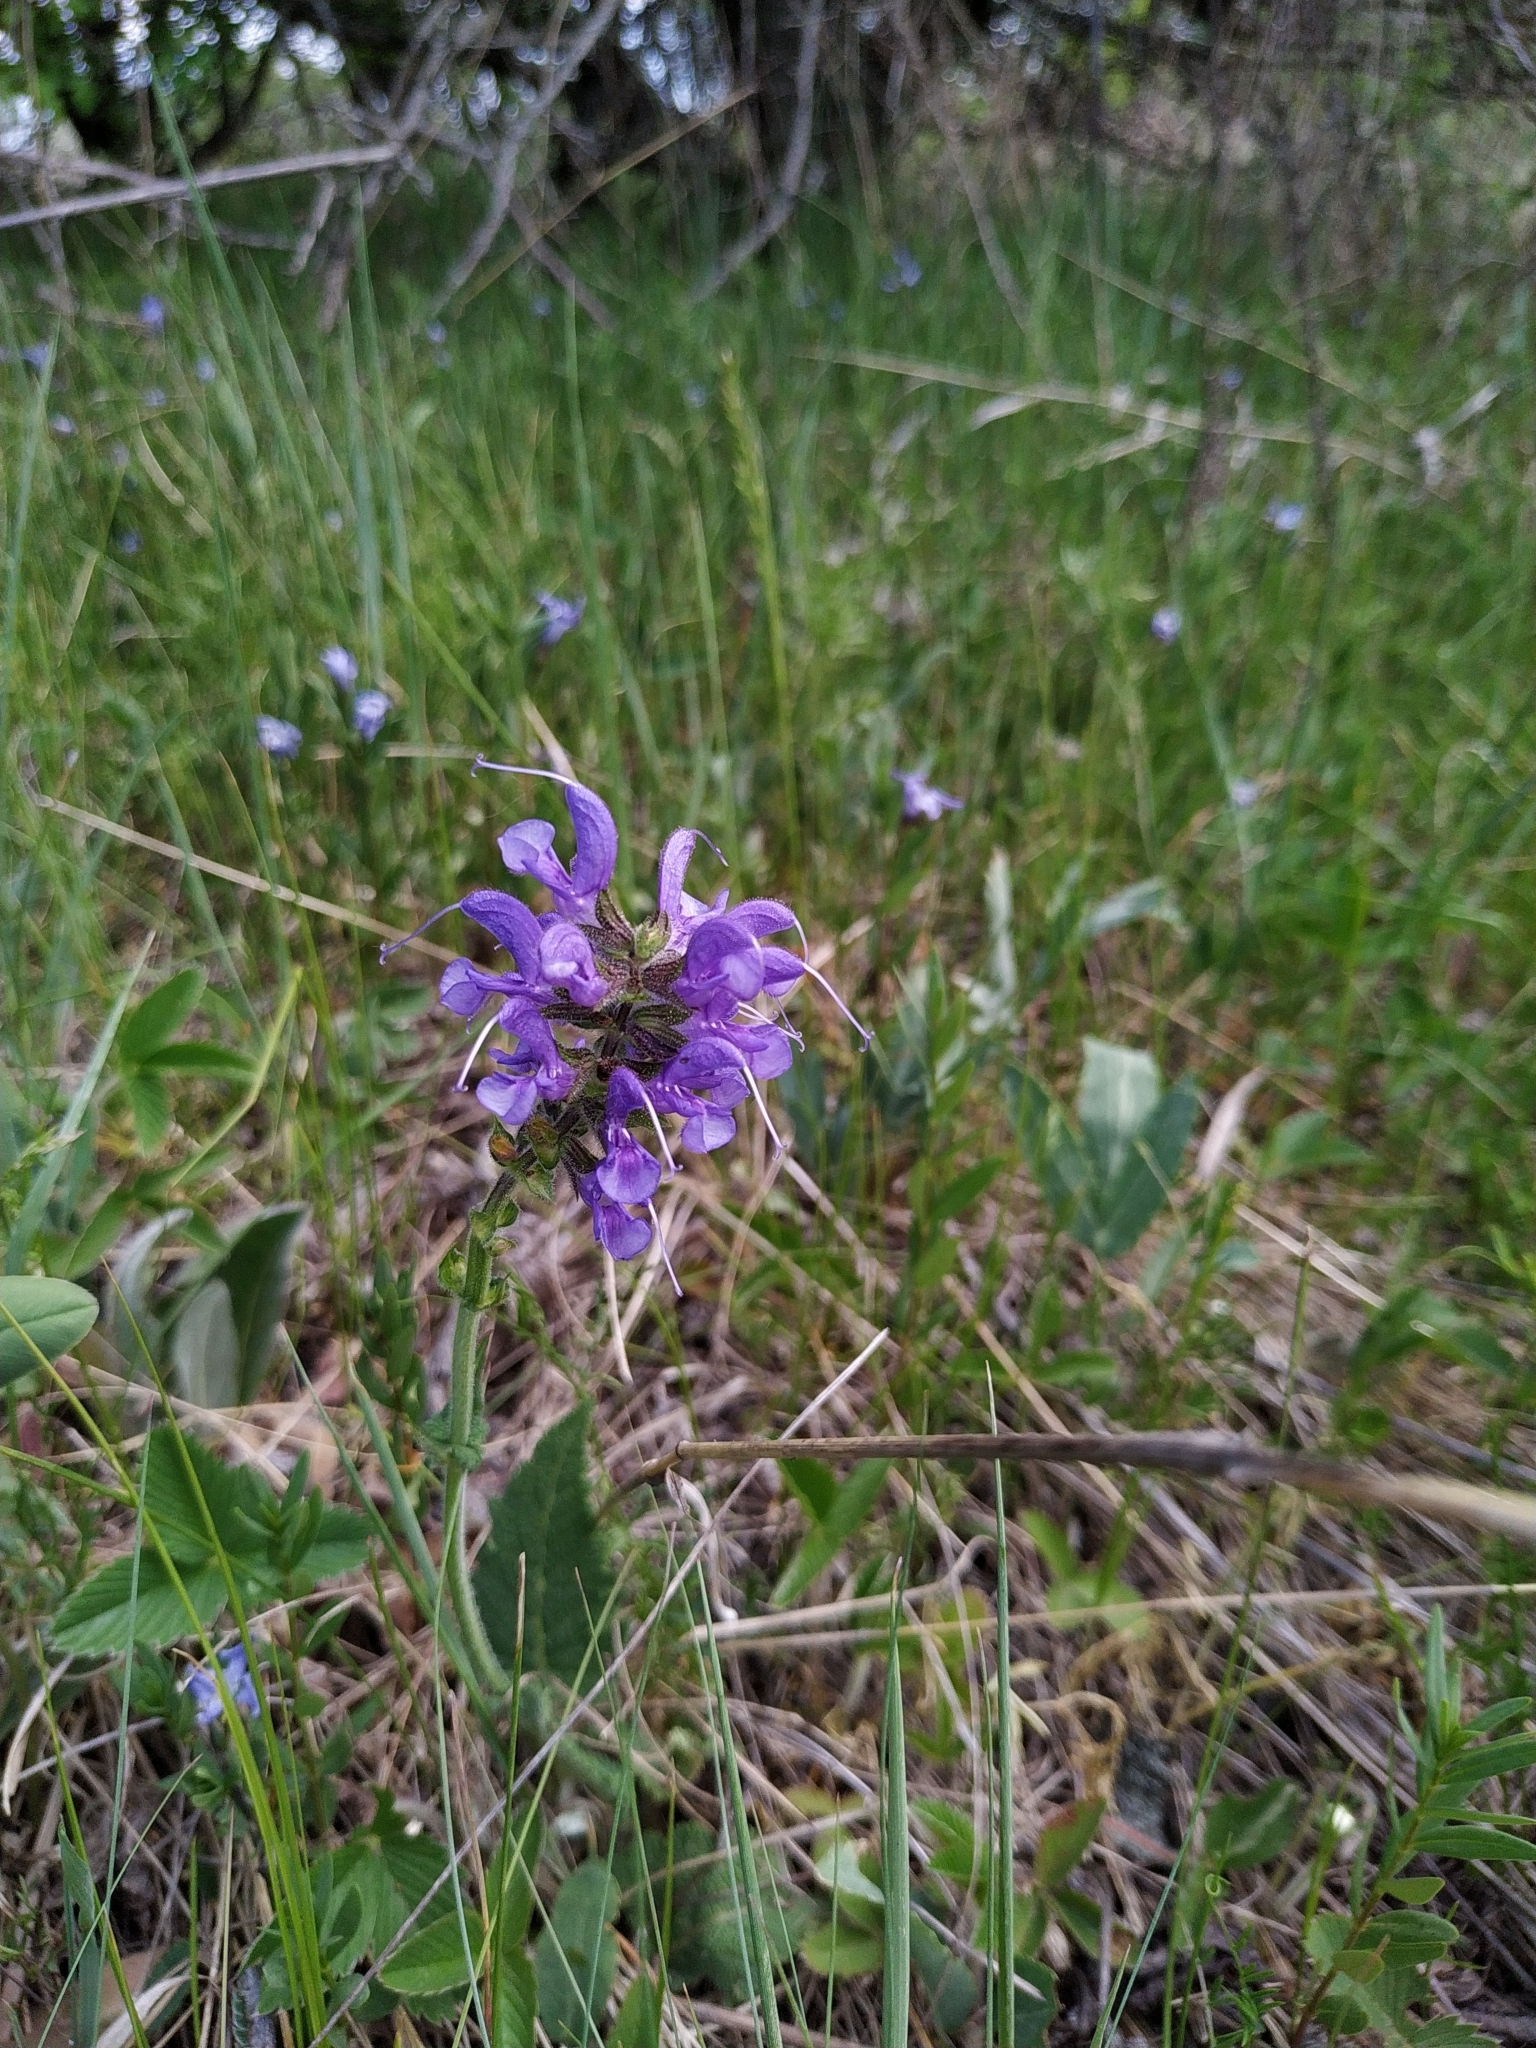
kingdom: Plantae
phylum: Tracheophyta
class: Magnoliopsida
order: Lamiales
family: Lamiaceae
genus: Salvia
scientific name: Salvia pratensis
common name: Meadow sage
